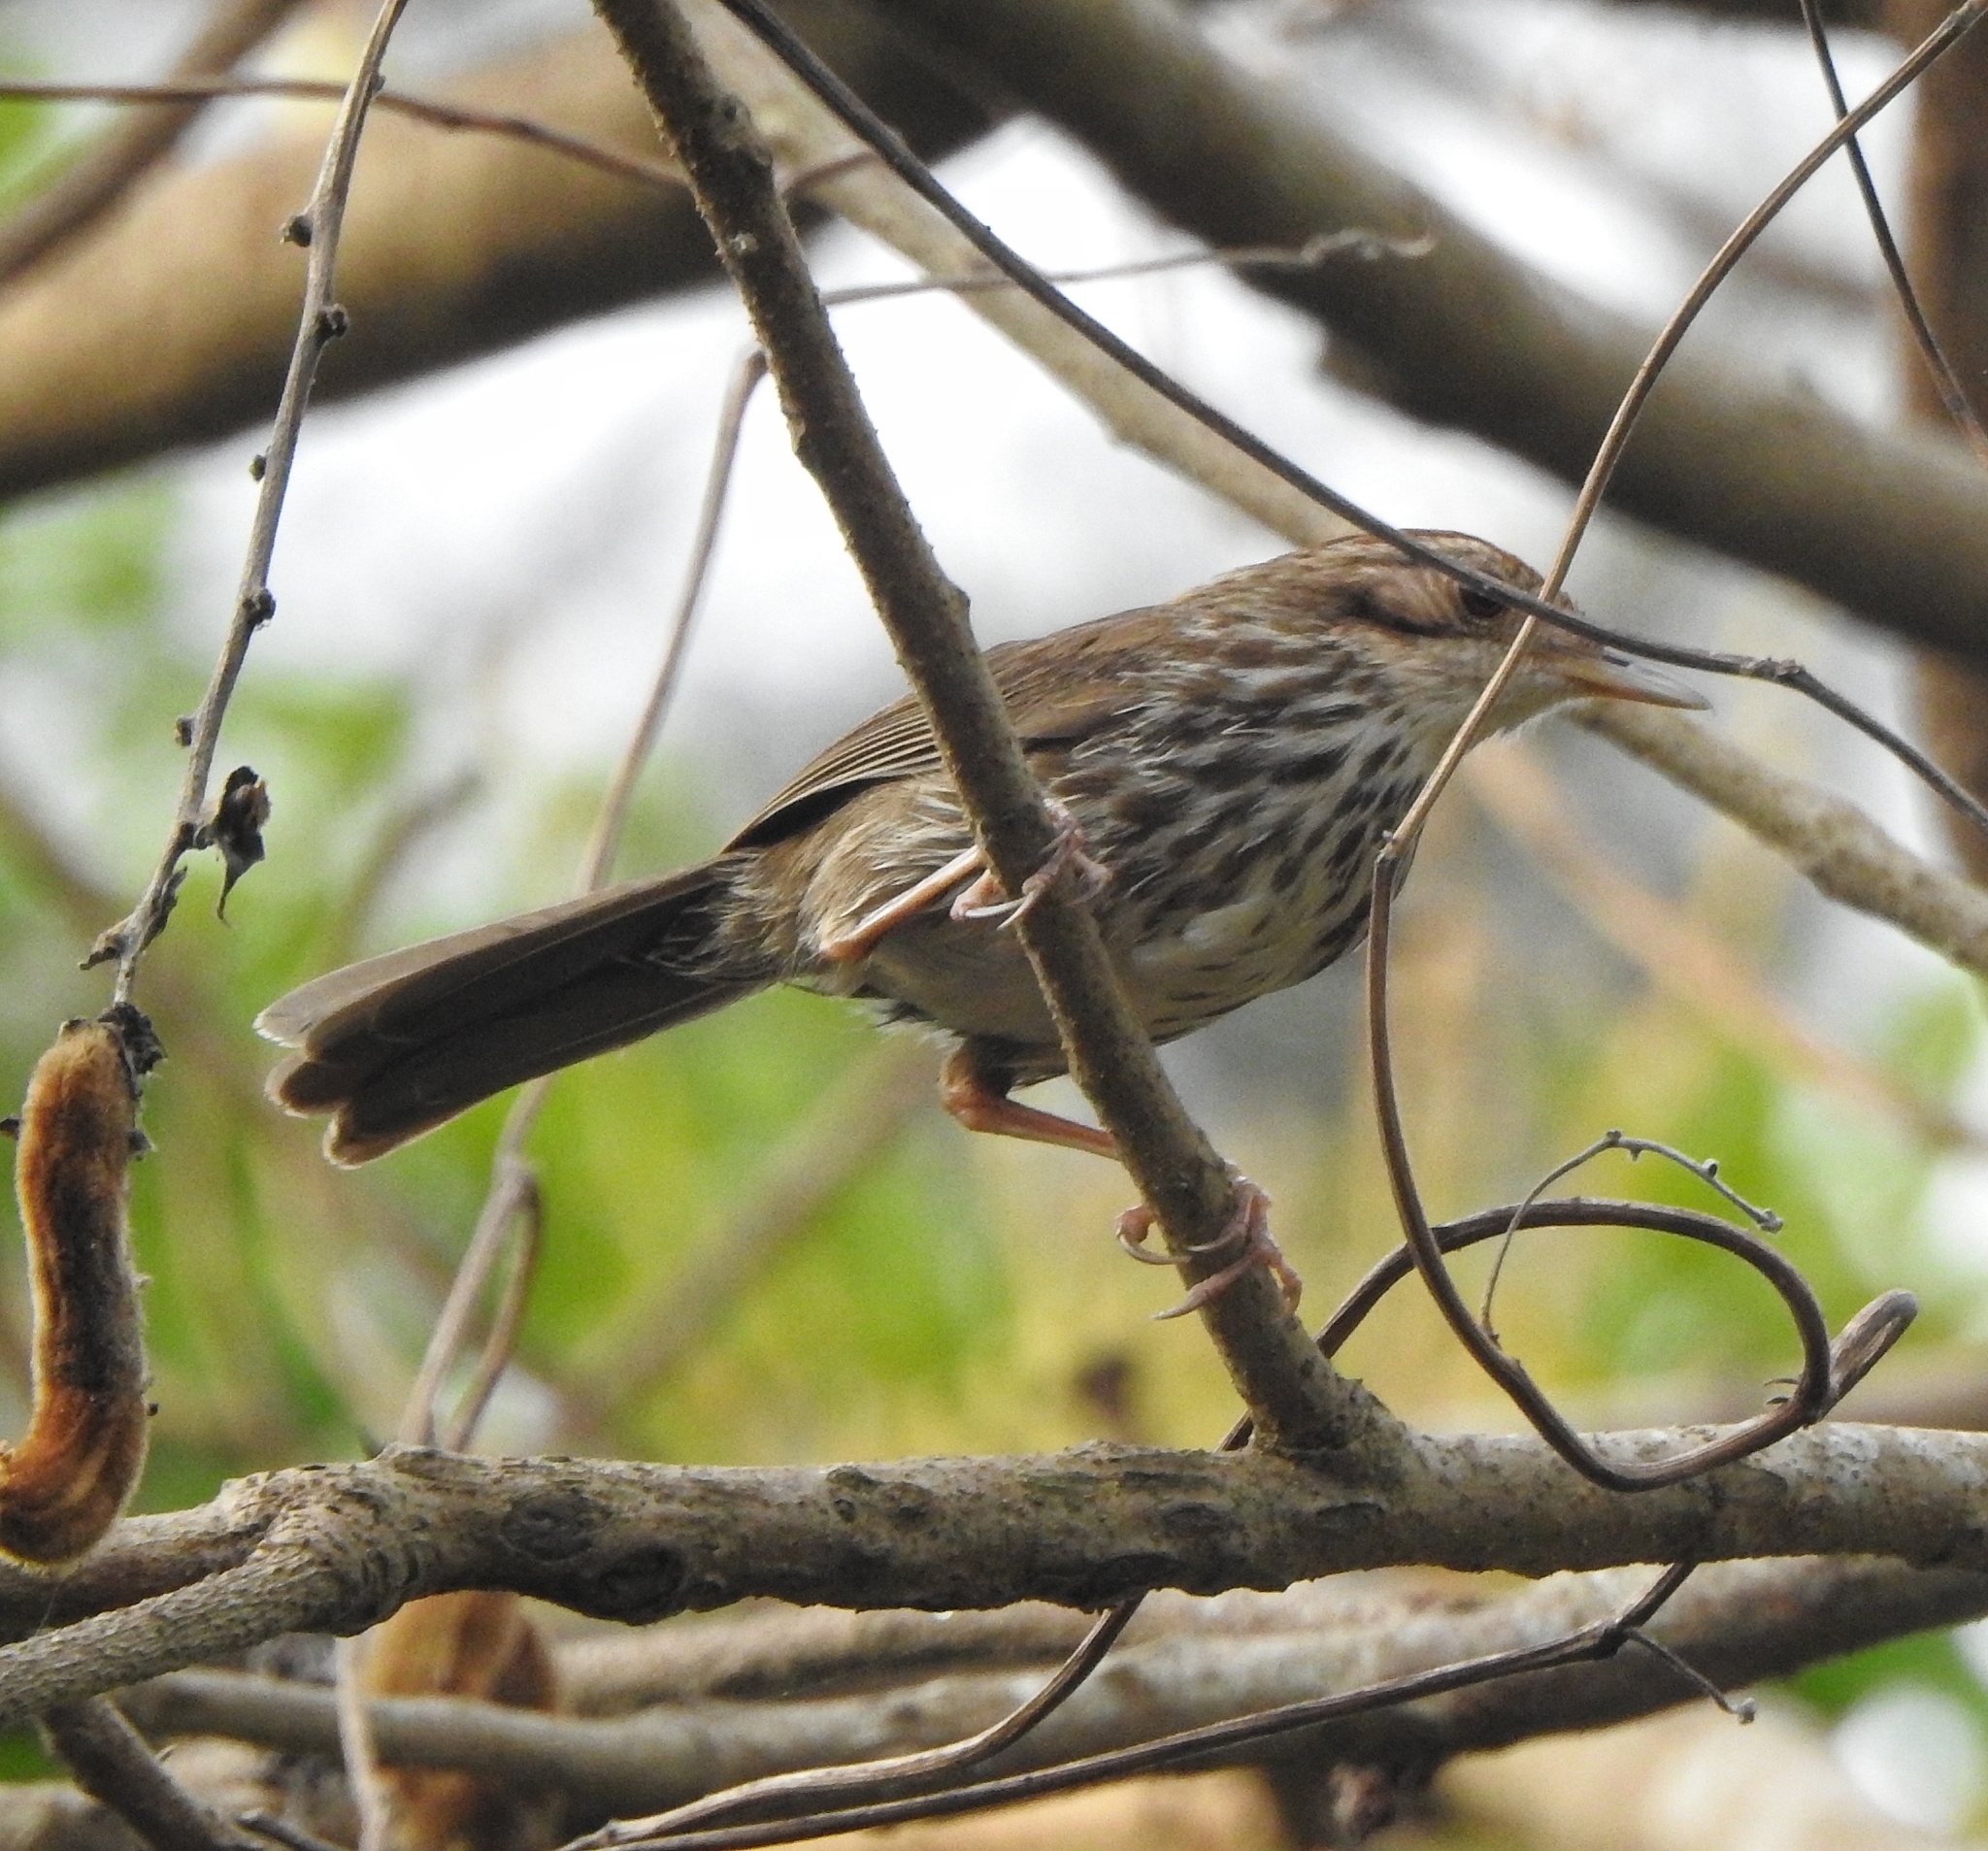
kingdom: Animalia
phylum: Chordata
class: Aves
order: Passeriformes
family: Pellorneidae
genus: Pellorneum
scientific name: Pellorneum ruficeps
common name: Puff-throated babbler
